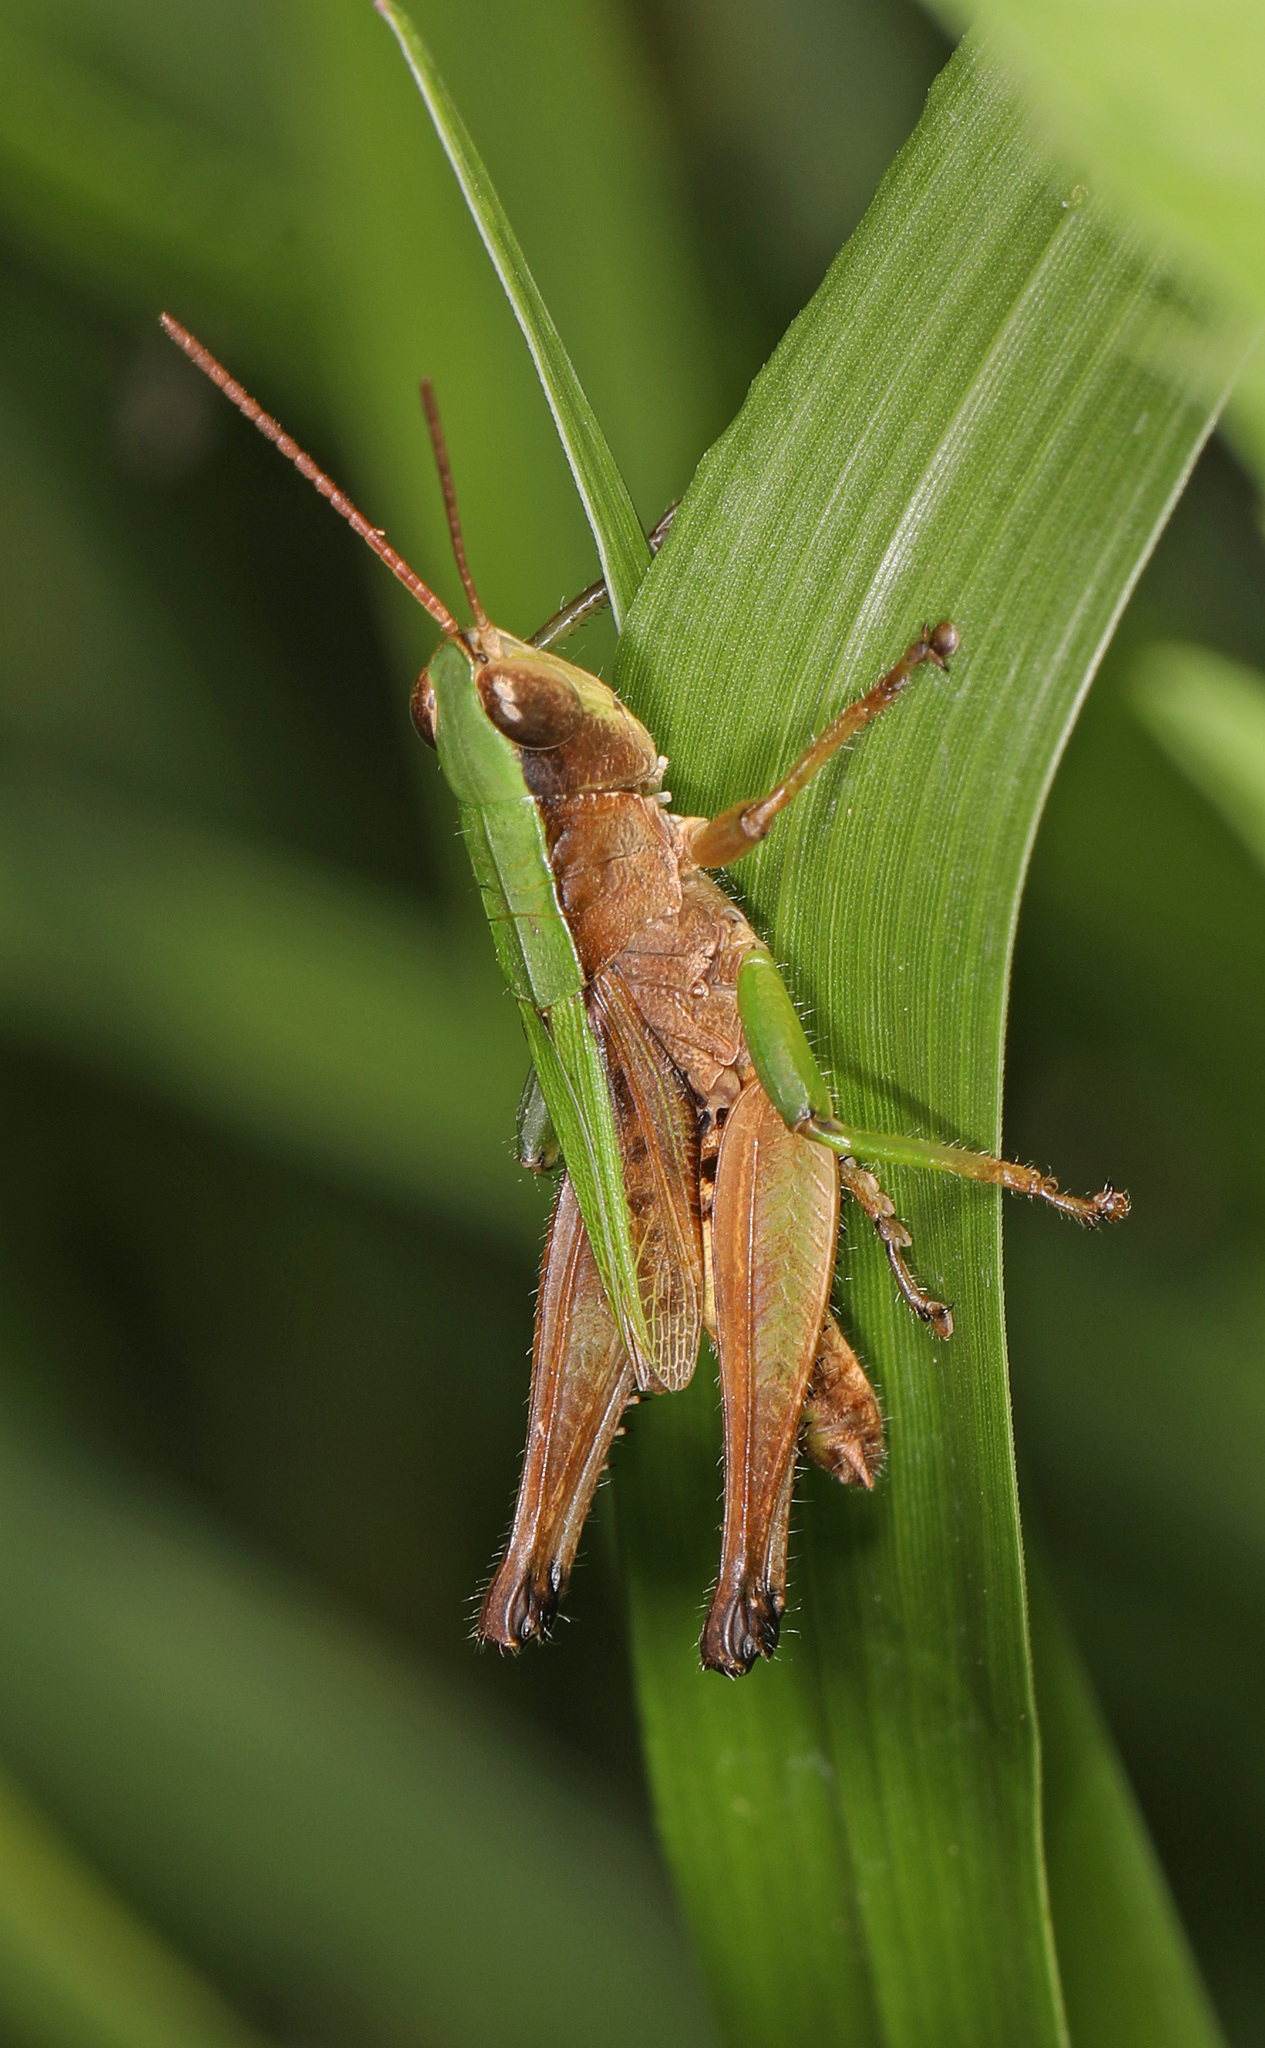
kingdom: Animalia
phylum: Arthropoda
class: Insecta
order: Orthoptera
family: Acrididae
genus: Dichromorpha
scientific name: Dichromorpha viridis
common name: Short-winged green grasshopper
